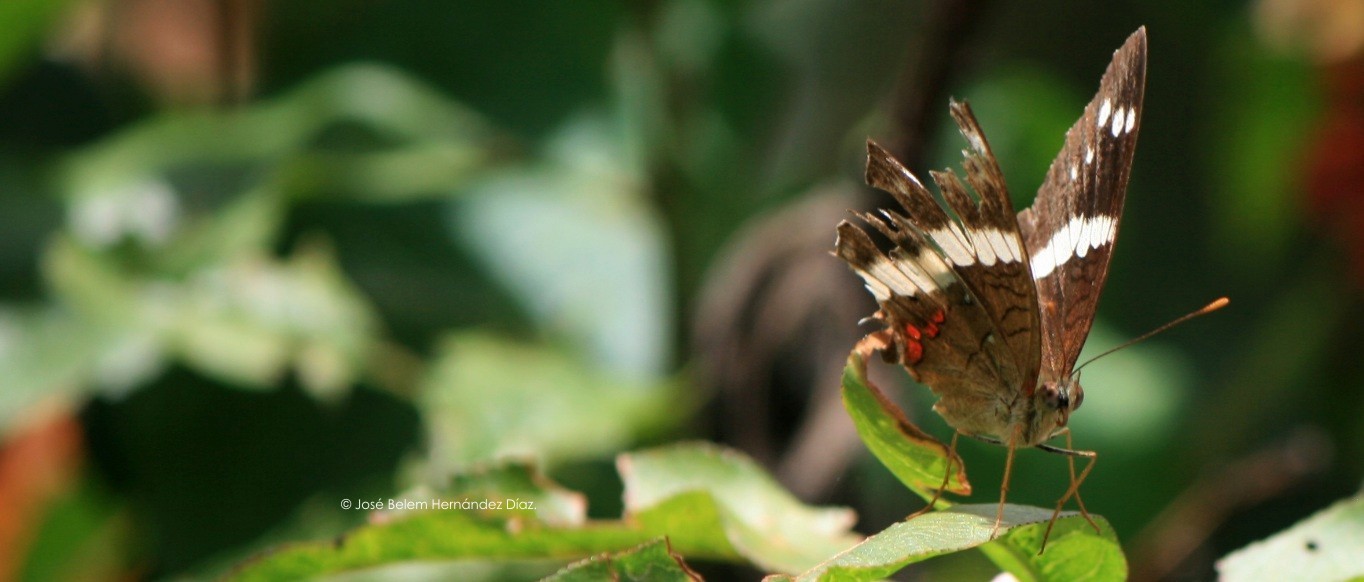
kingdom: Animalia
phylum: Arthropoda
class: Insecta
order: Lepidoptera
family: Nymphalidae
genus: Anartia
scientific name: Anartia fatima
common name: Banded peacock
